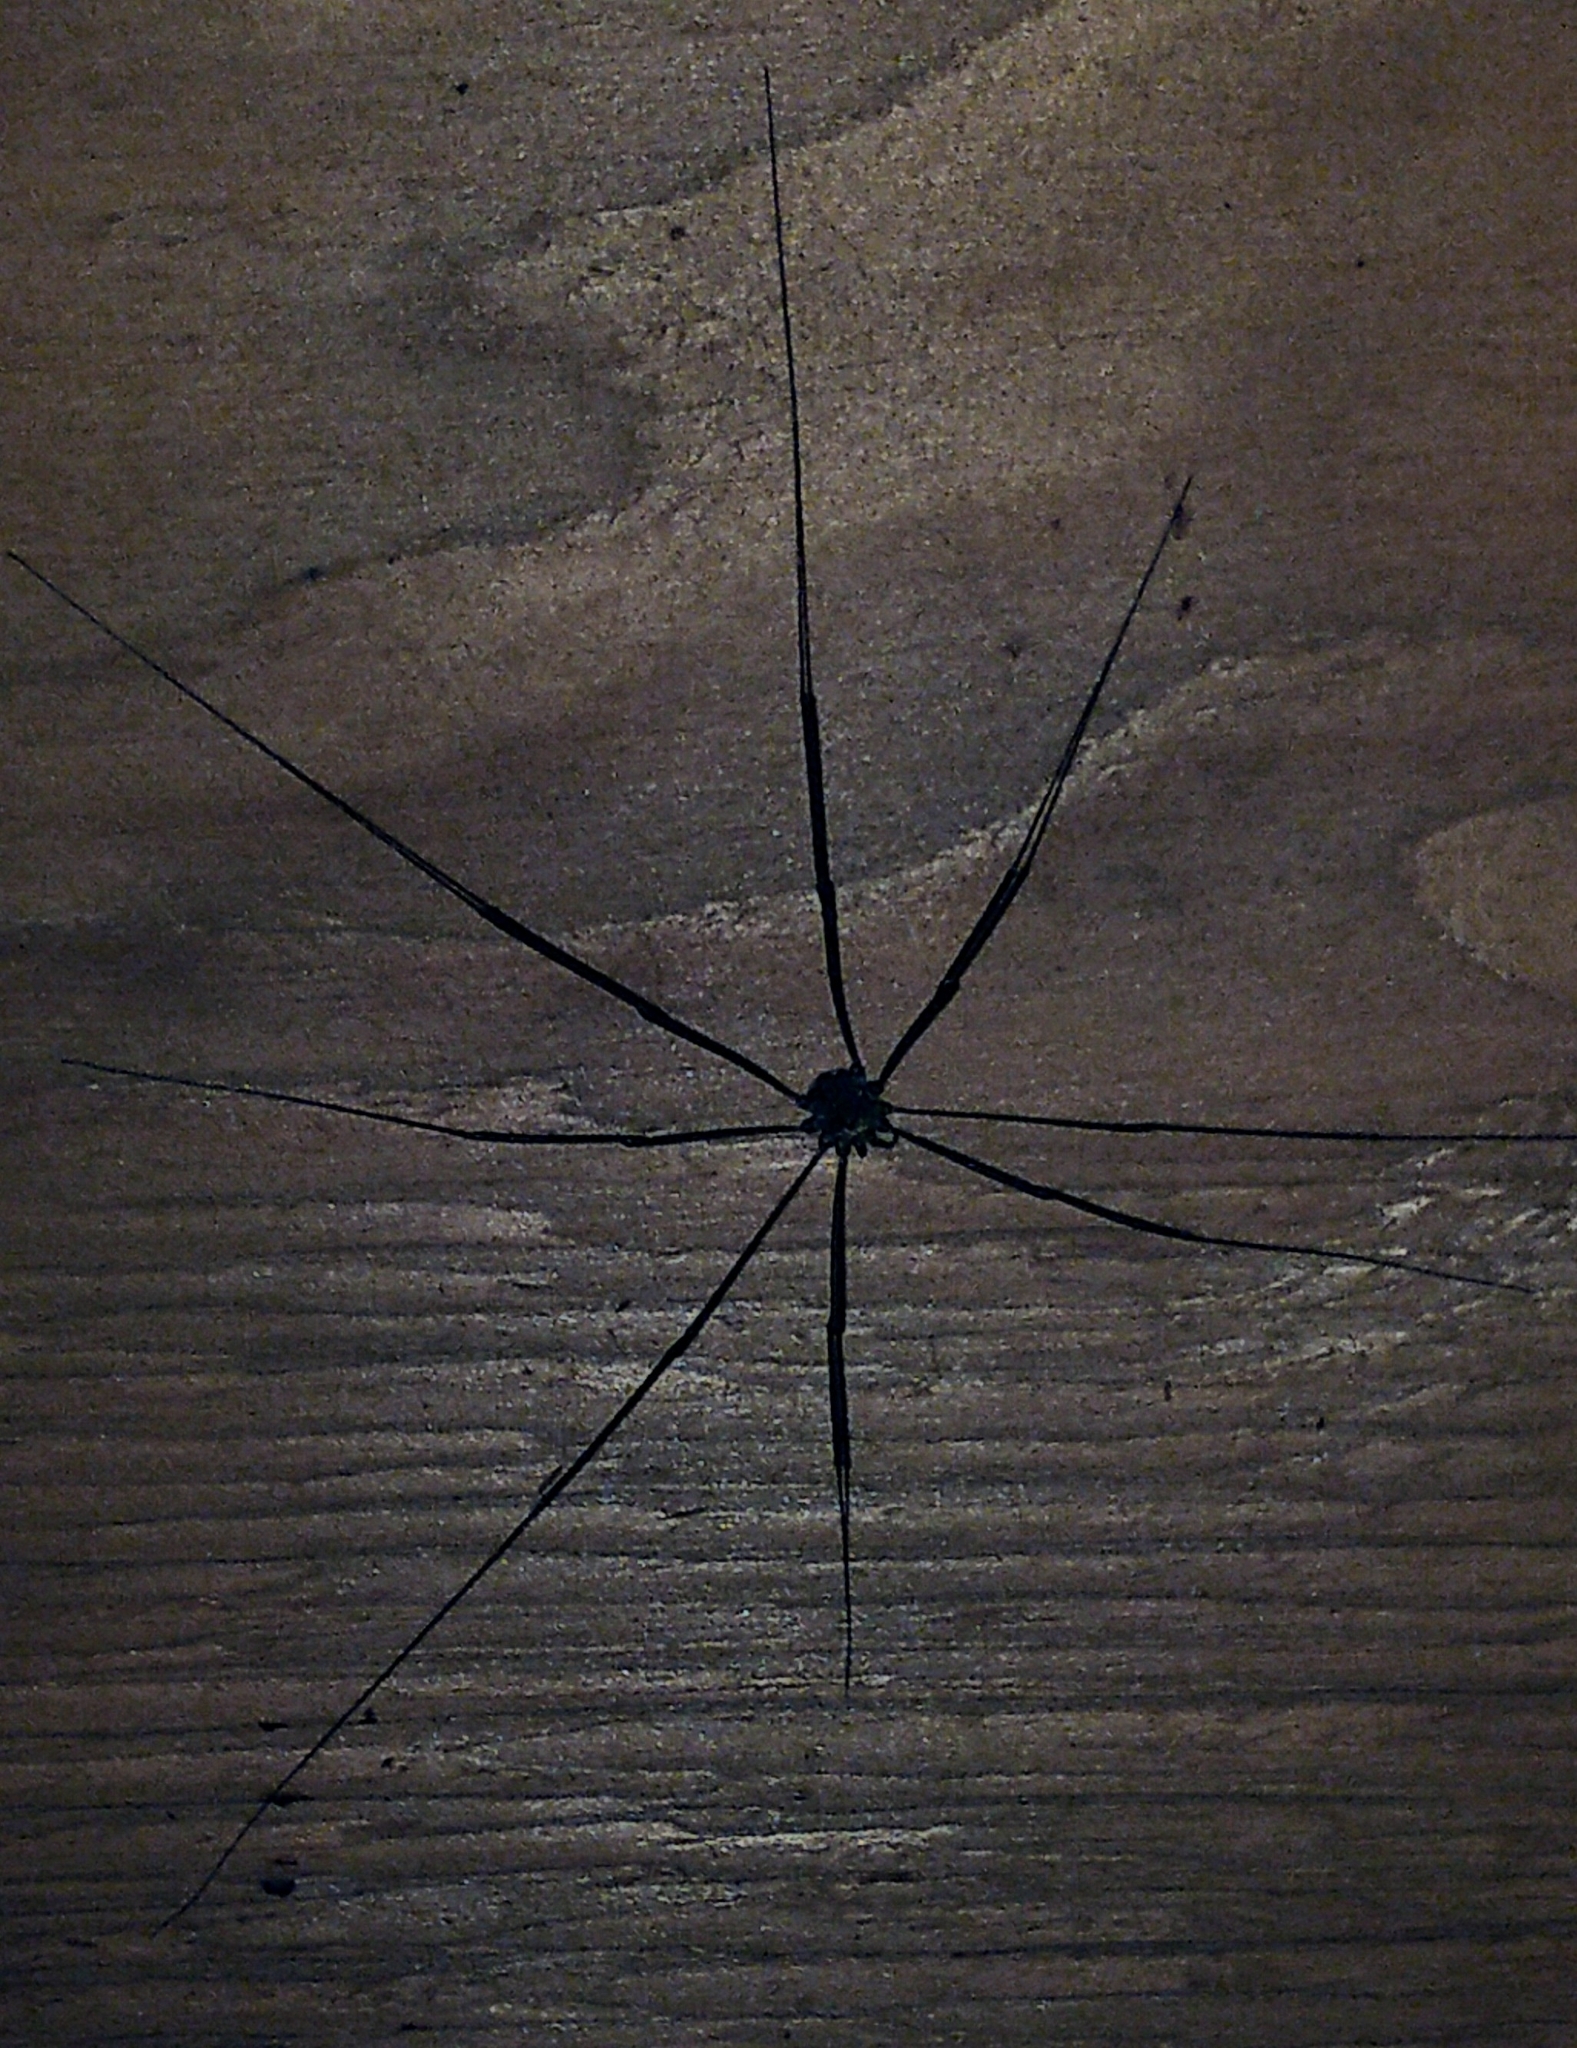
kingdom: Animalia
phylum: Arthropoda
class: Arachnida
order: Opiliones
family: Sclerosomatidae
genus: Leiobunum
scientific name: Leiobunum exilipes
